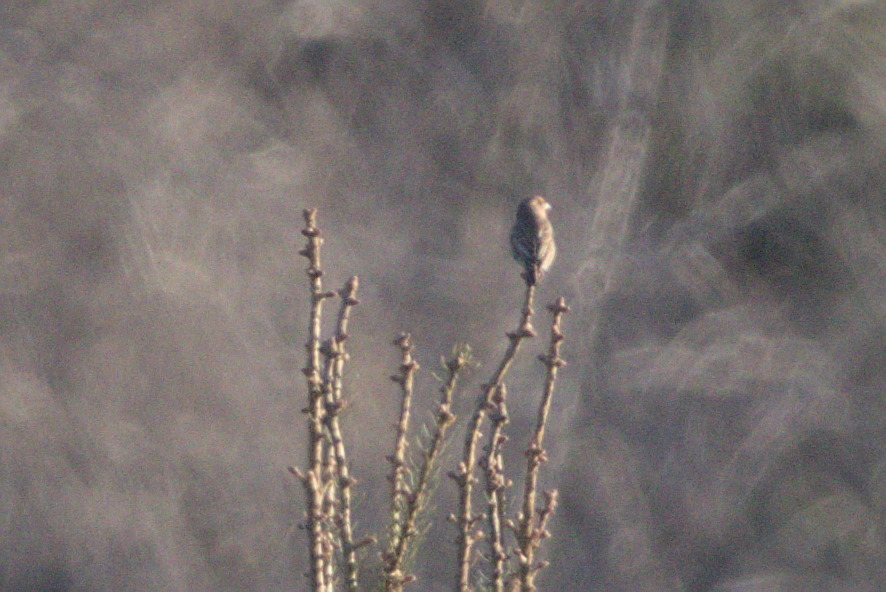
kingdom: Animalia
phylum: Chordata
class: Aves
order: Passeriformes
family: Fringillidae
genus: Haemorhous
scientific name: Haemorhous mexicanus
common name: House finch
